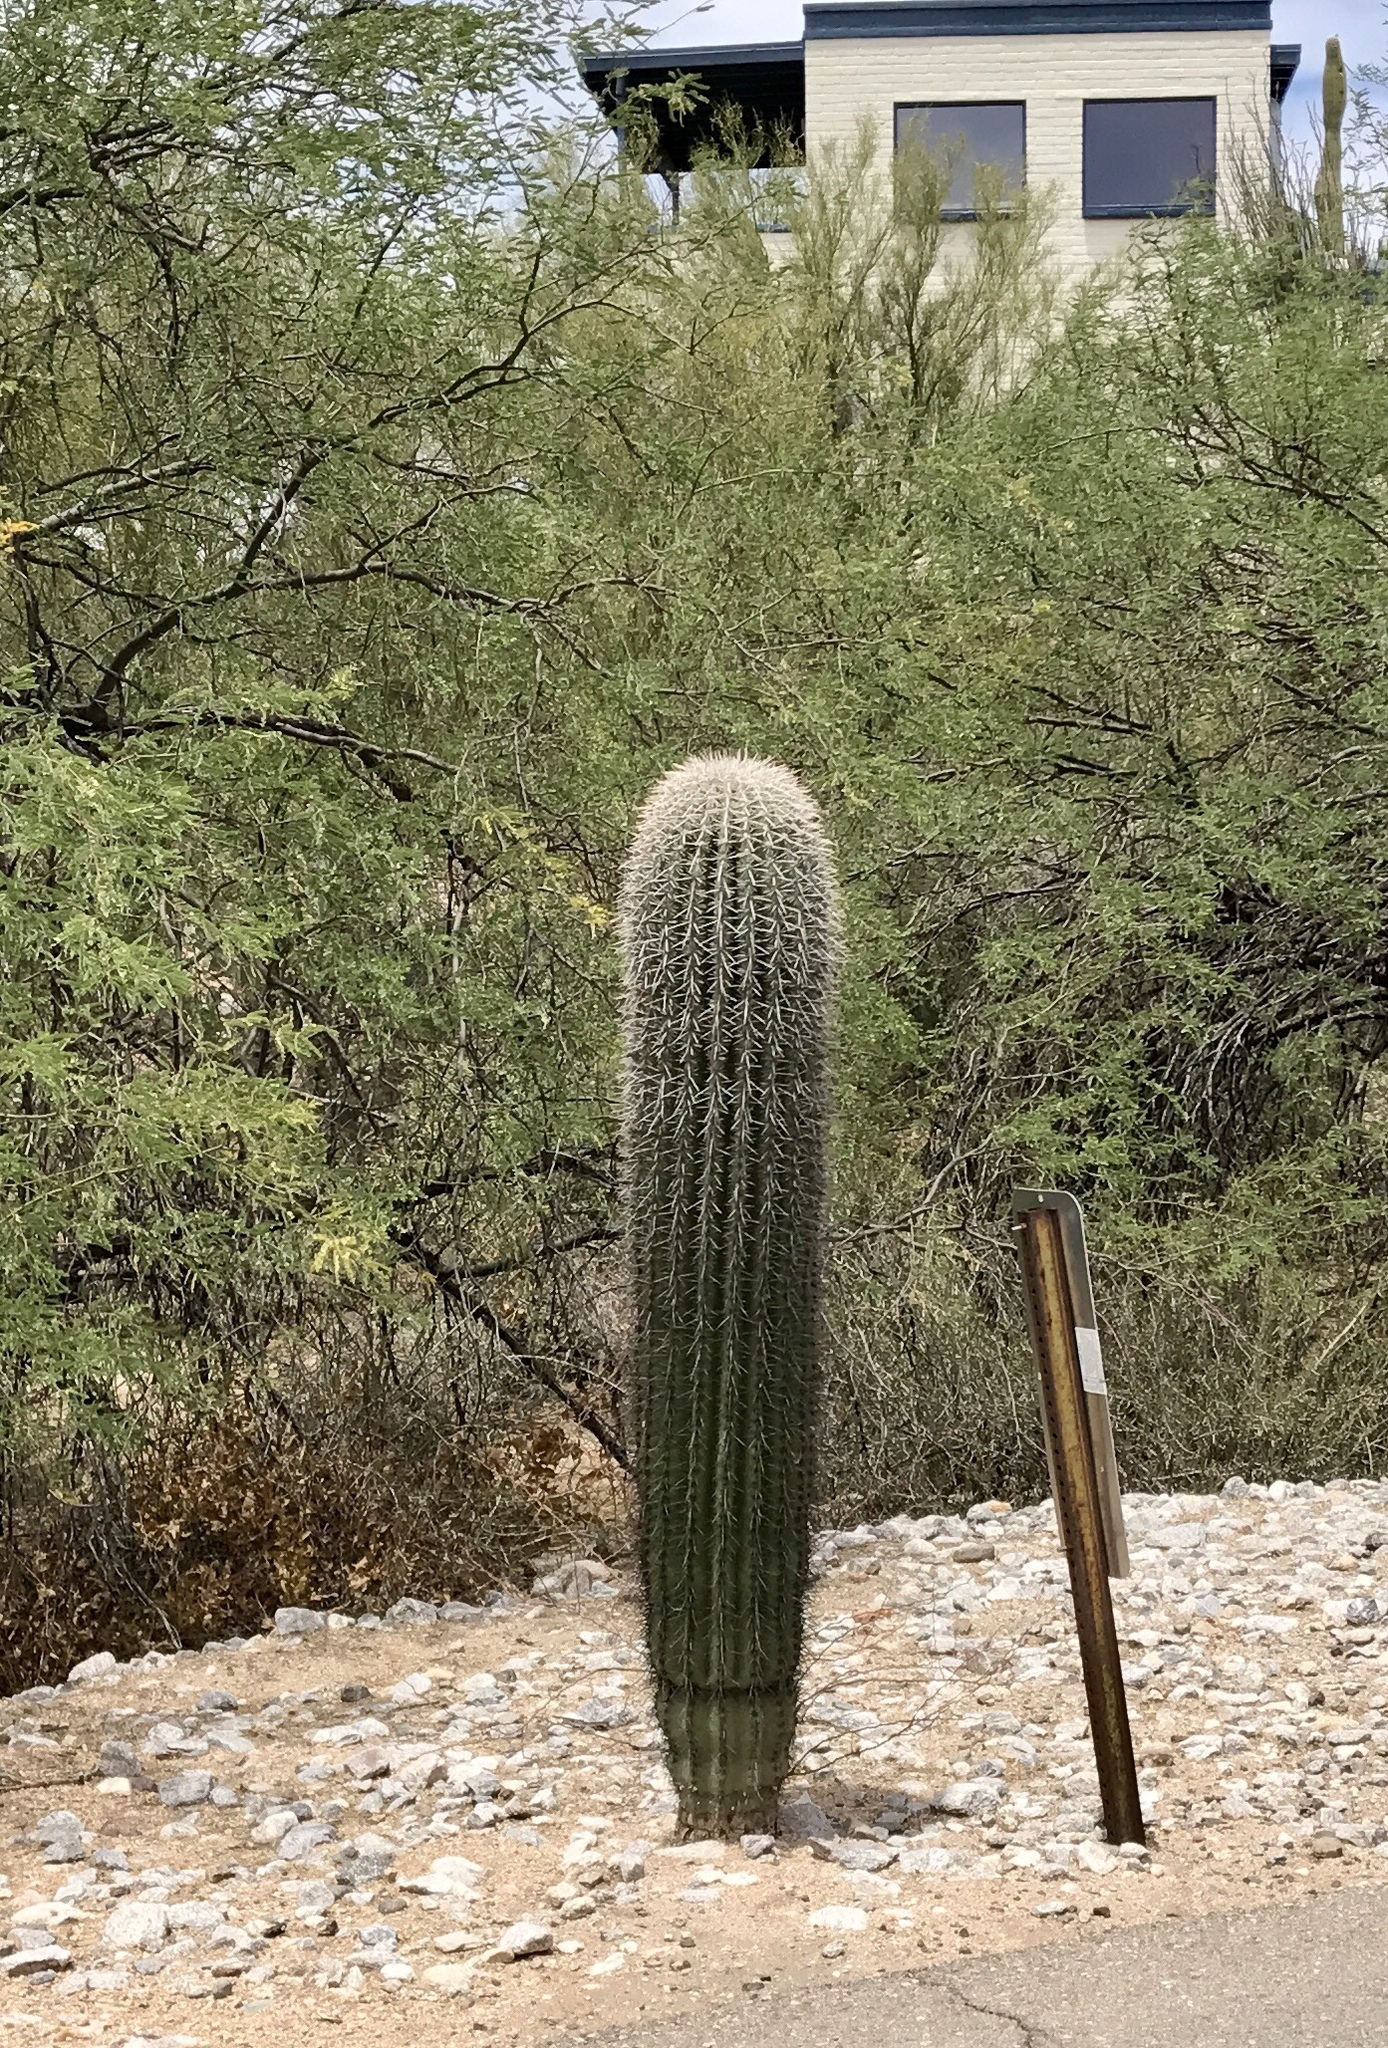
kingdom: Plantae
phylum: Tracheophyta
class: Magnoliopsida
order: Caryophyllales
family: Cactaceae
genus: Carnegiea
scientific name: Carnegiea gigantea
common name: Saguaro
